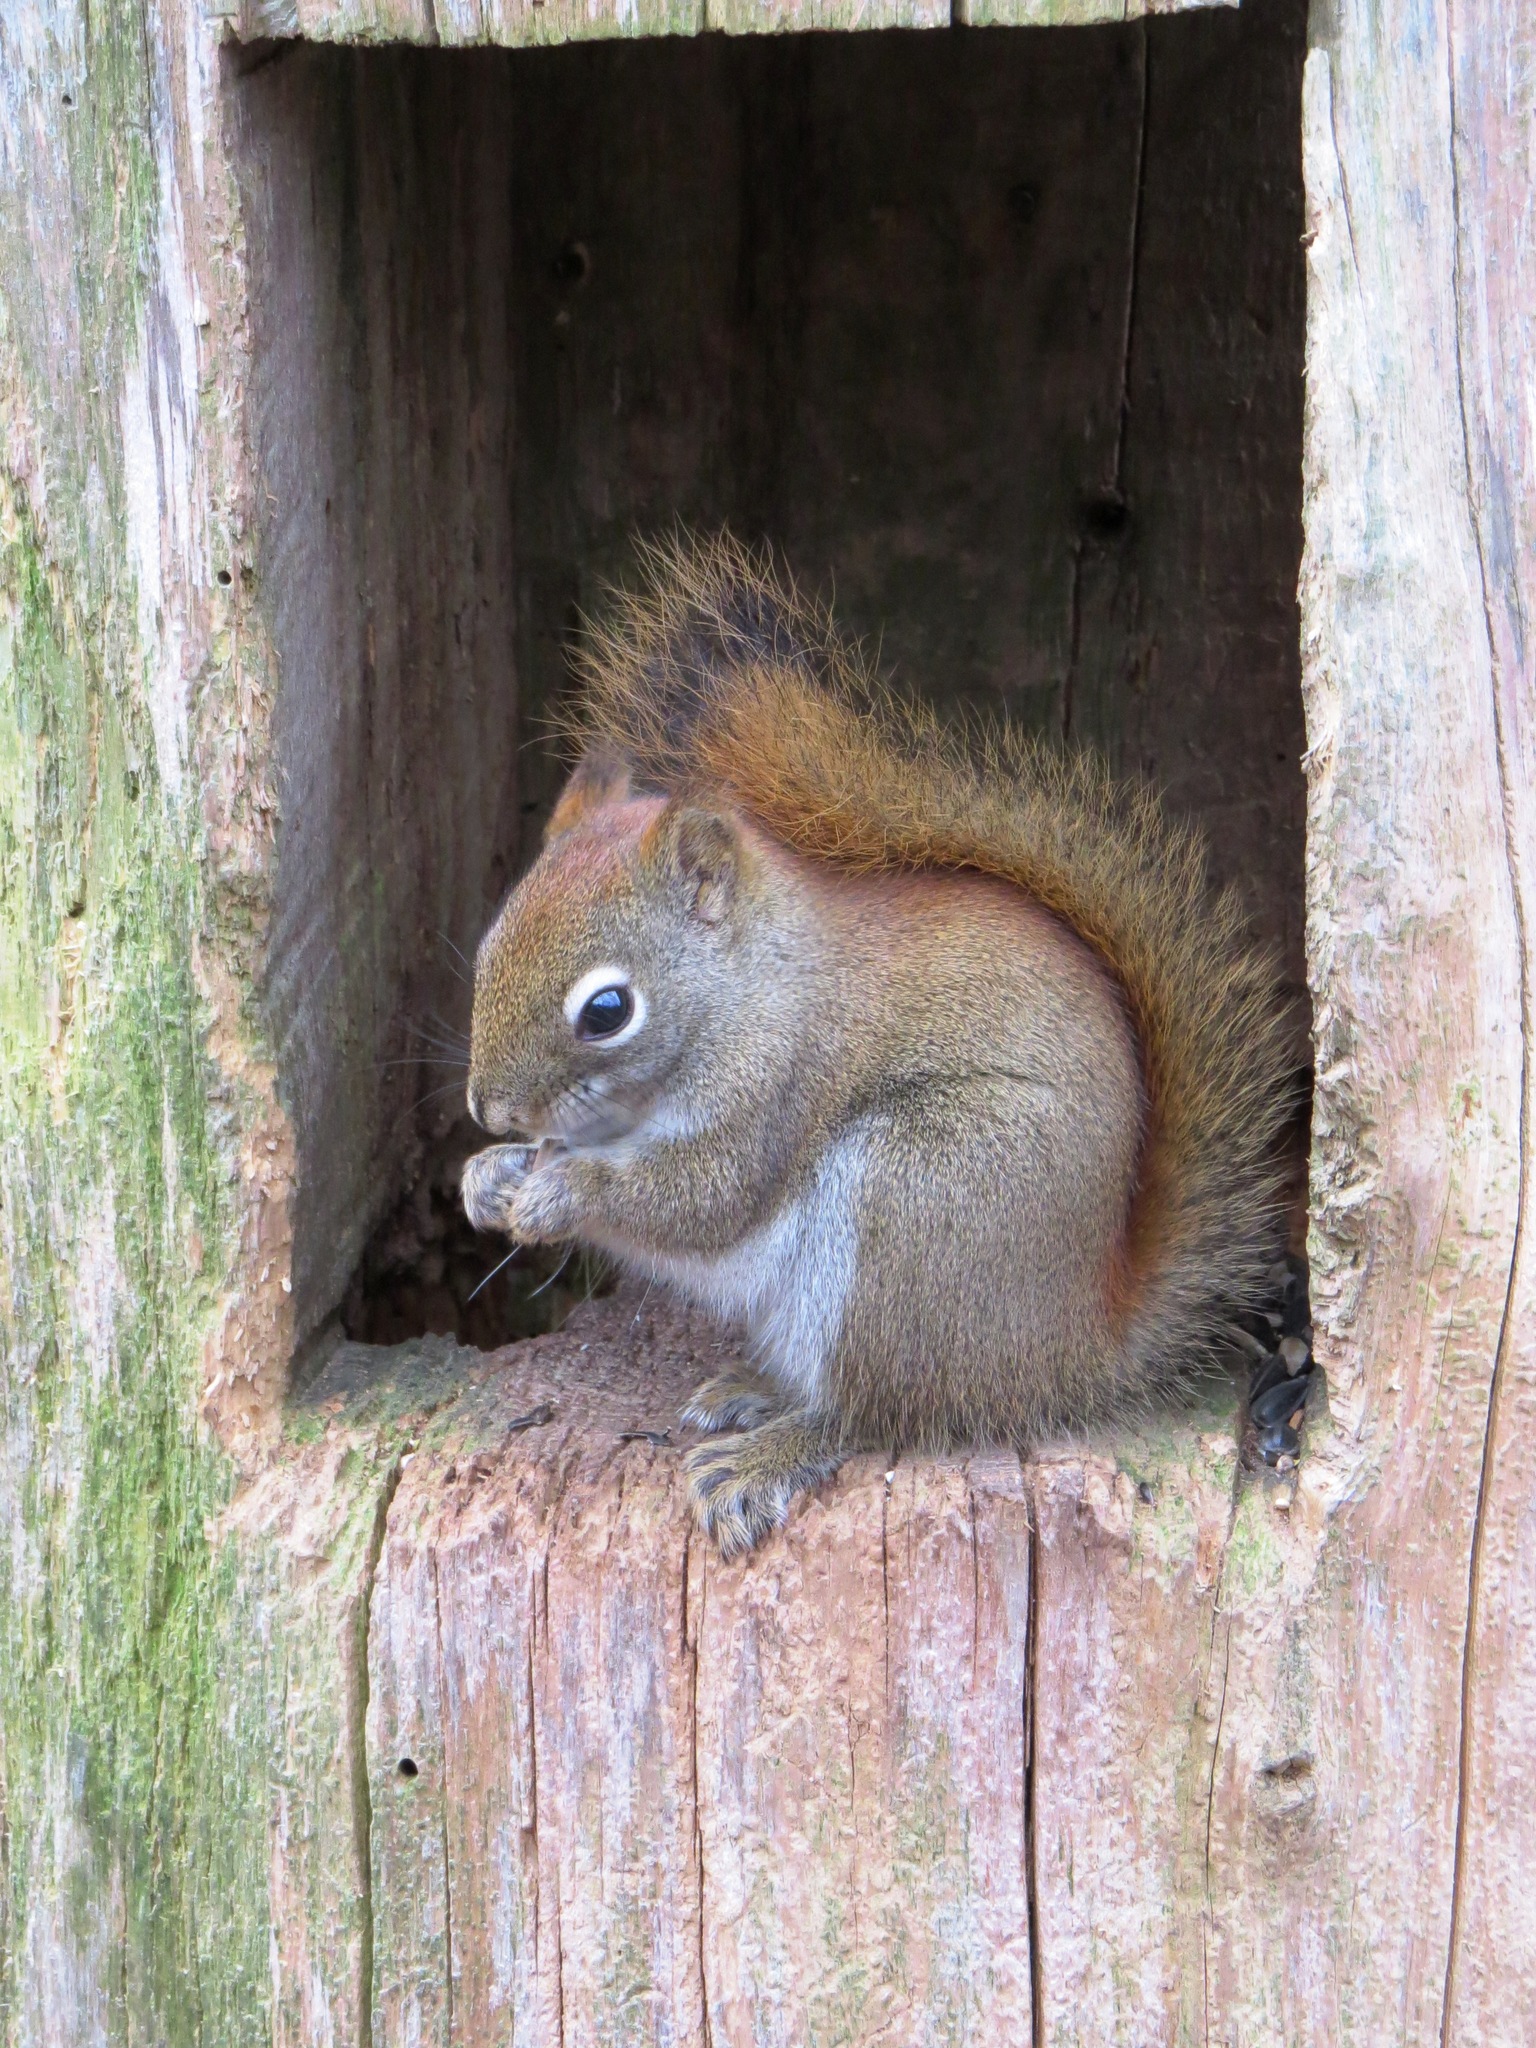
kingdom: Animalia
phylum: Chordata
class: Mammalia
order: Rodentia
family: Sciuridae
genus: Tamiasciurus
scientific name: Tamiasciurus hudsonicus
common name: Red squirrel
